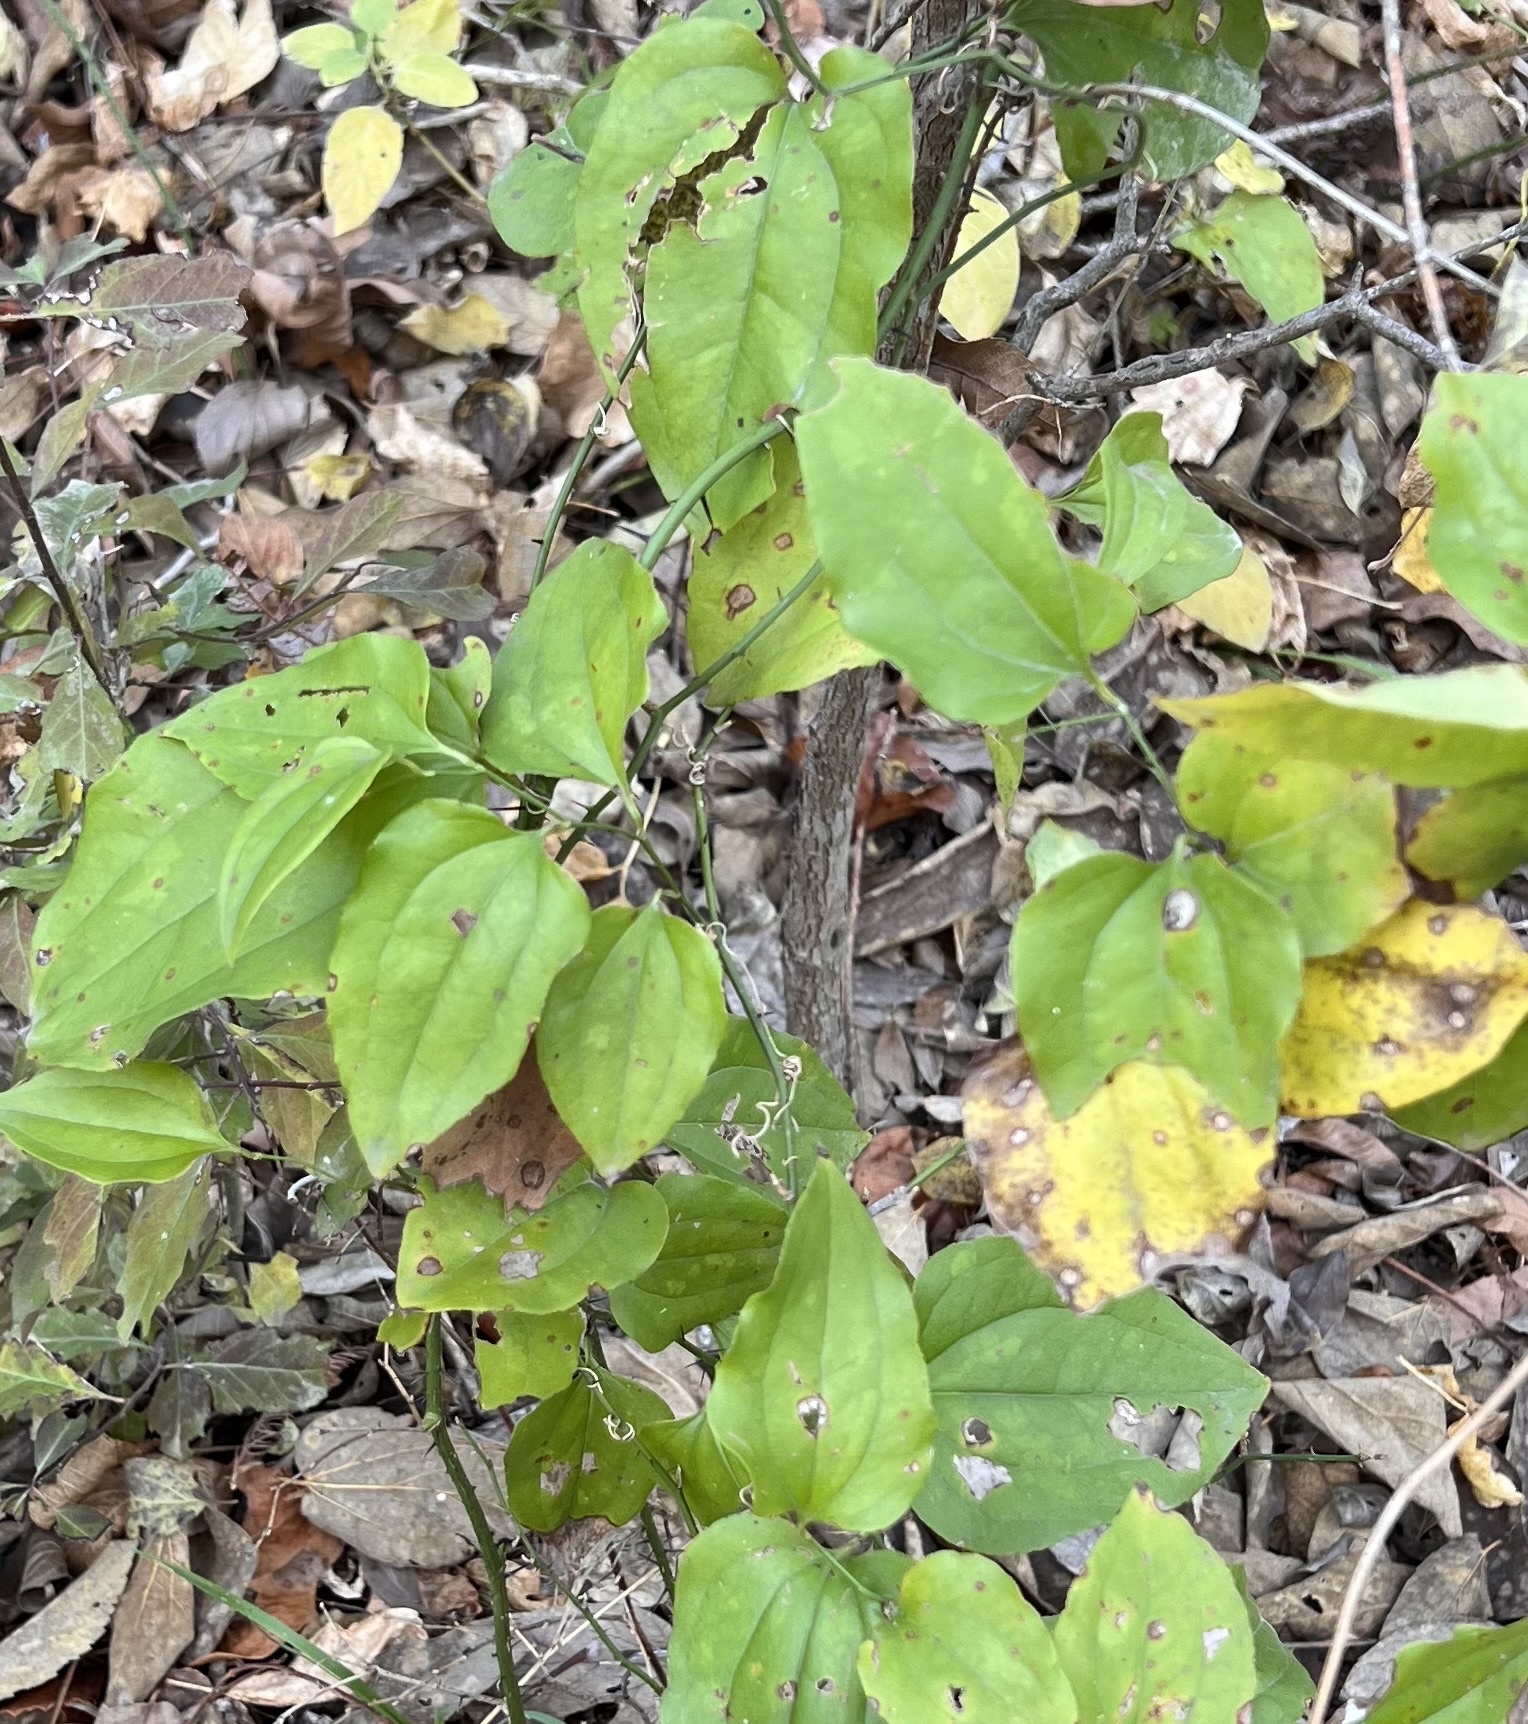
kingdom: Plantae
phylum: Tracheophyta
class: Liliopsida
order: Liliales
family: Smilacaceae
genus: Smilax
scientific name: Smilax tamnoides
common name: Hellfetter
